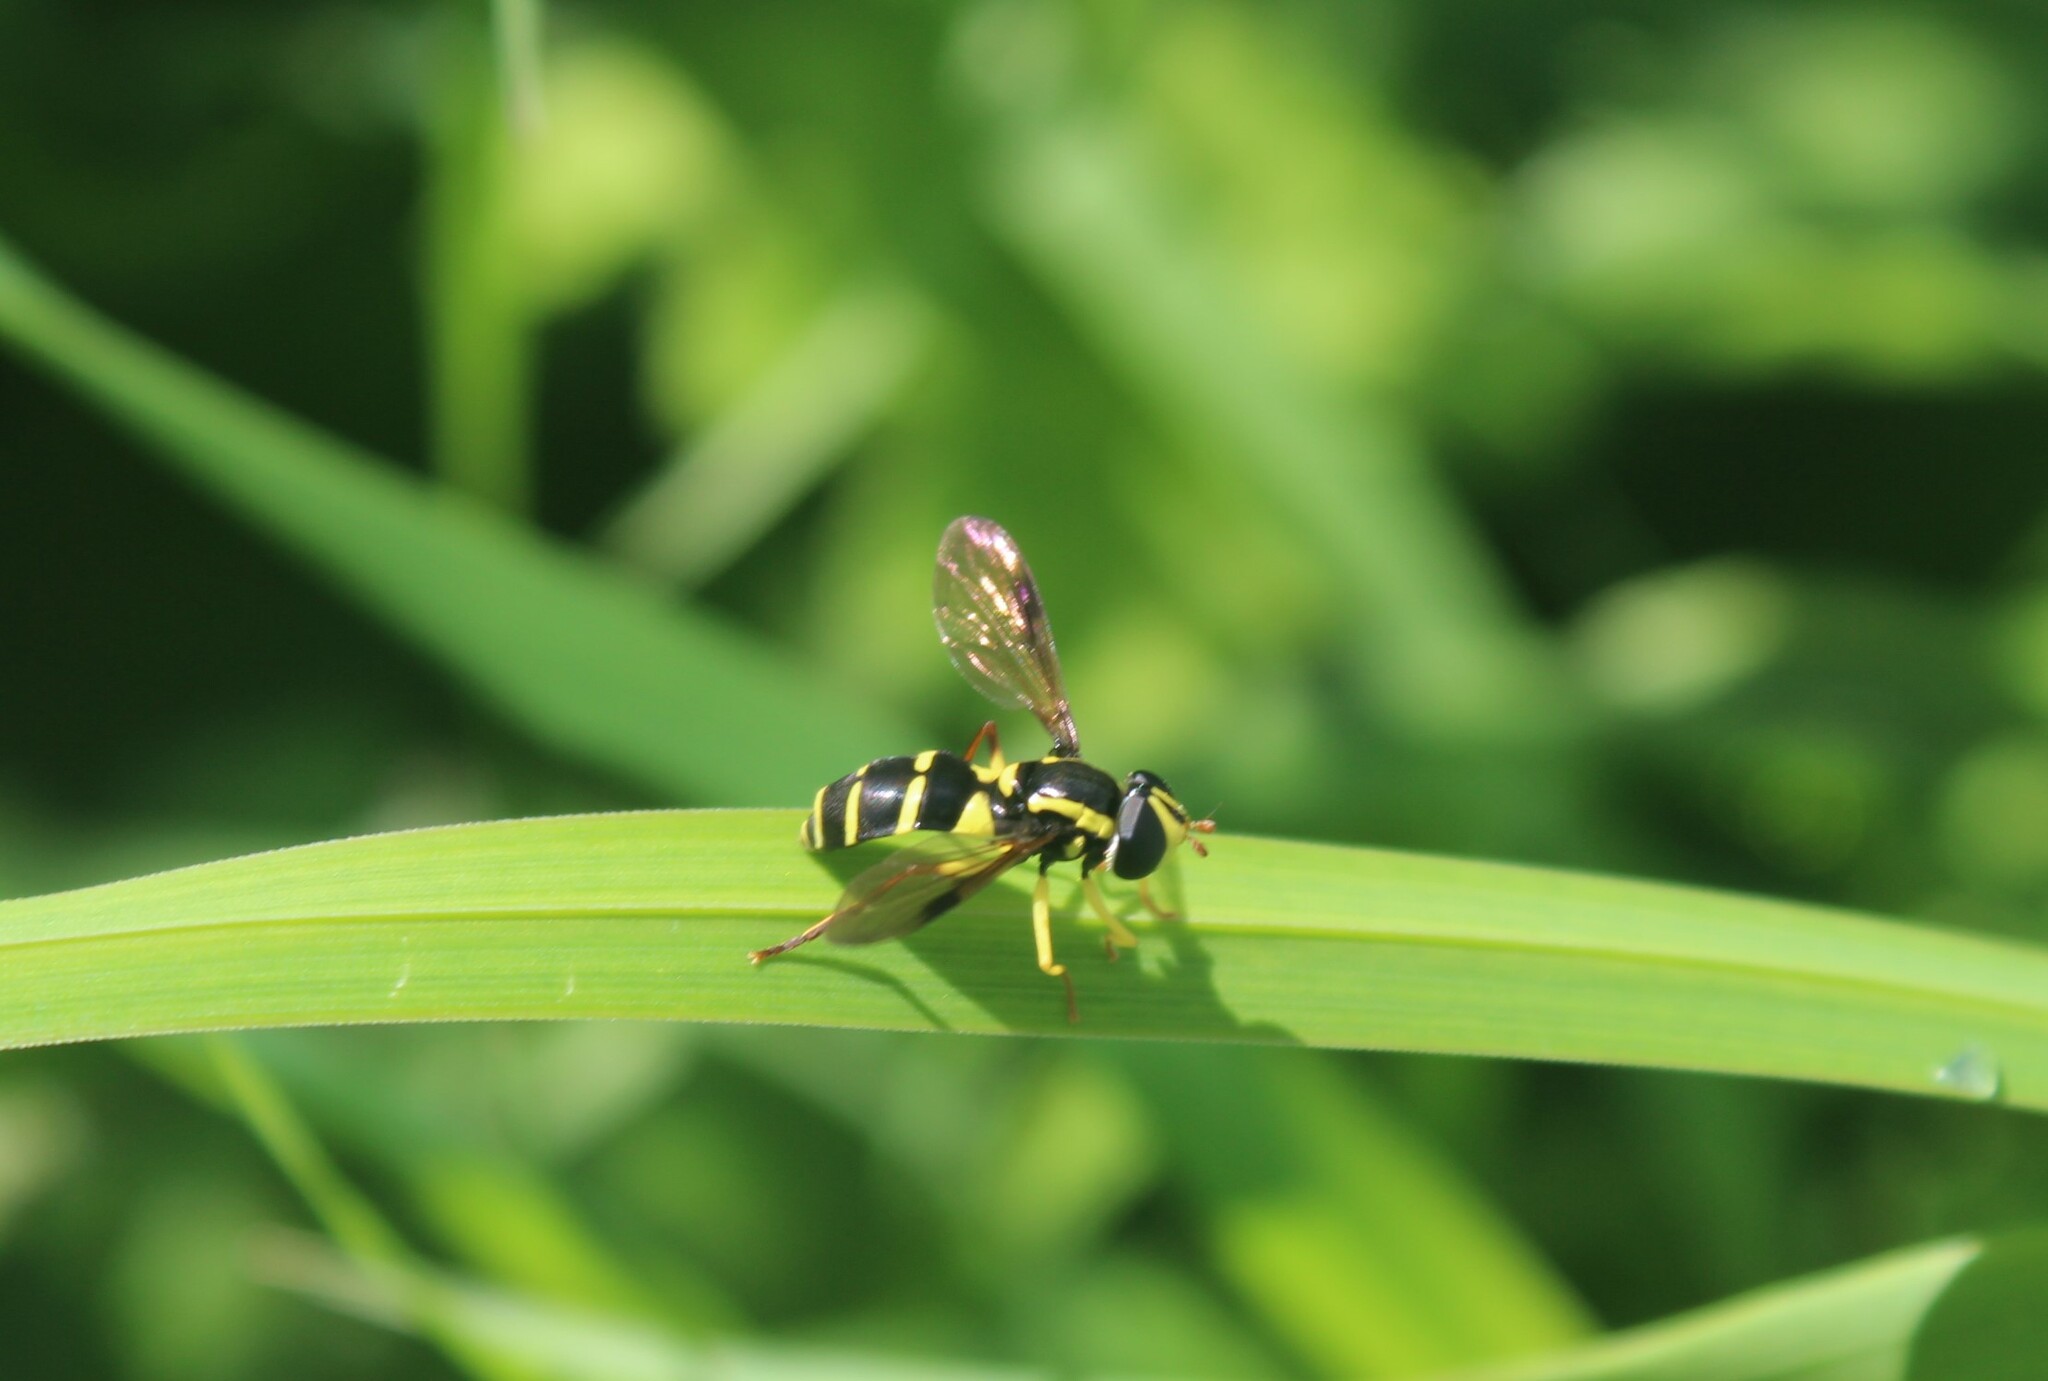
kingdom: Animalia
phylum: Arthropoda
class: Insecta
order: Diptera
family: Syrphidae
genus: Philhelius
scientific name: Philhelius pedissequum
